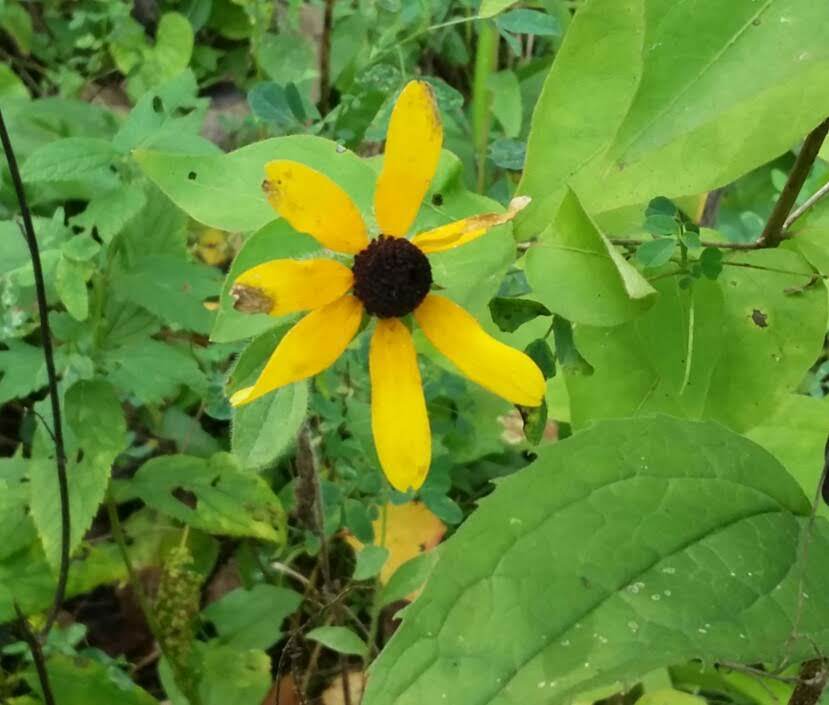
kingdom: Plantae
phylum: Tracheophyta
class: Magnoliopsida
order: Asterales
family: Asteraceae
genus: Rudbeckia
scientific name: Rudbeckia hirta
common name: Black-eyed-susan
